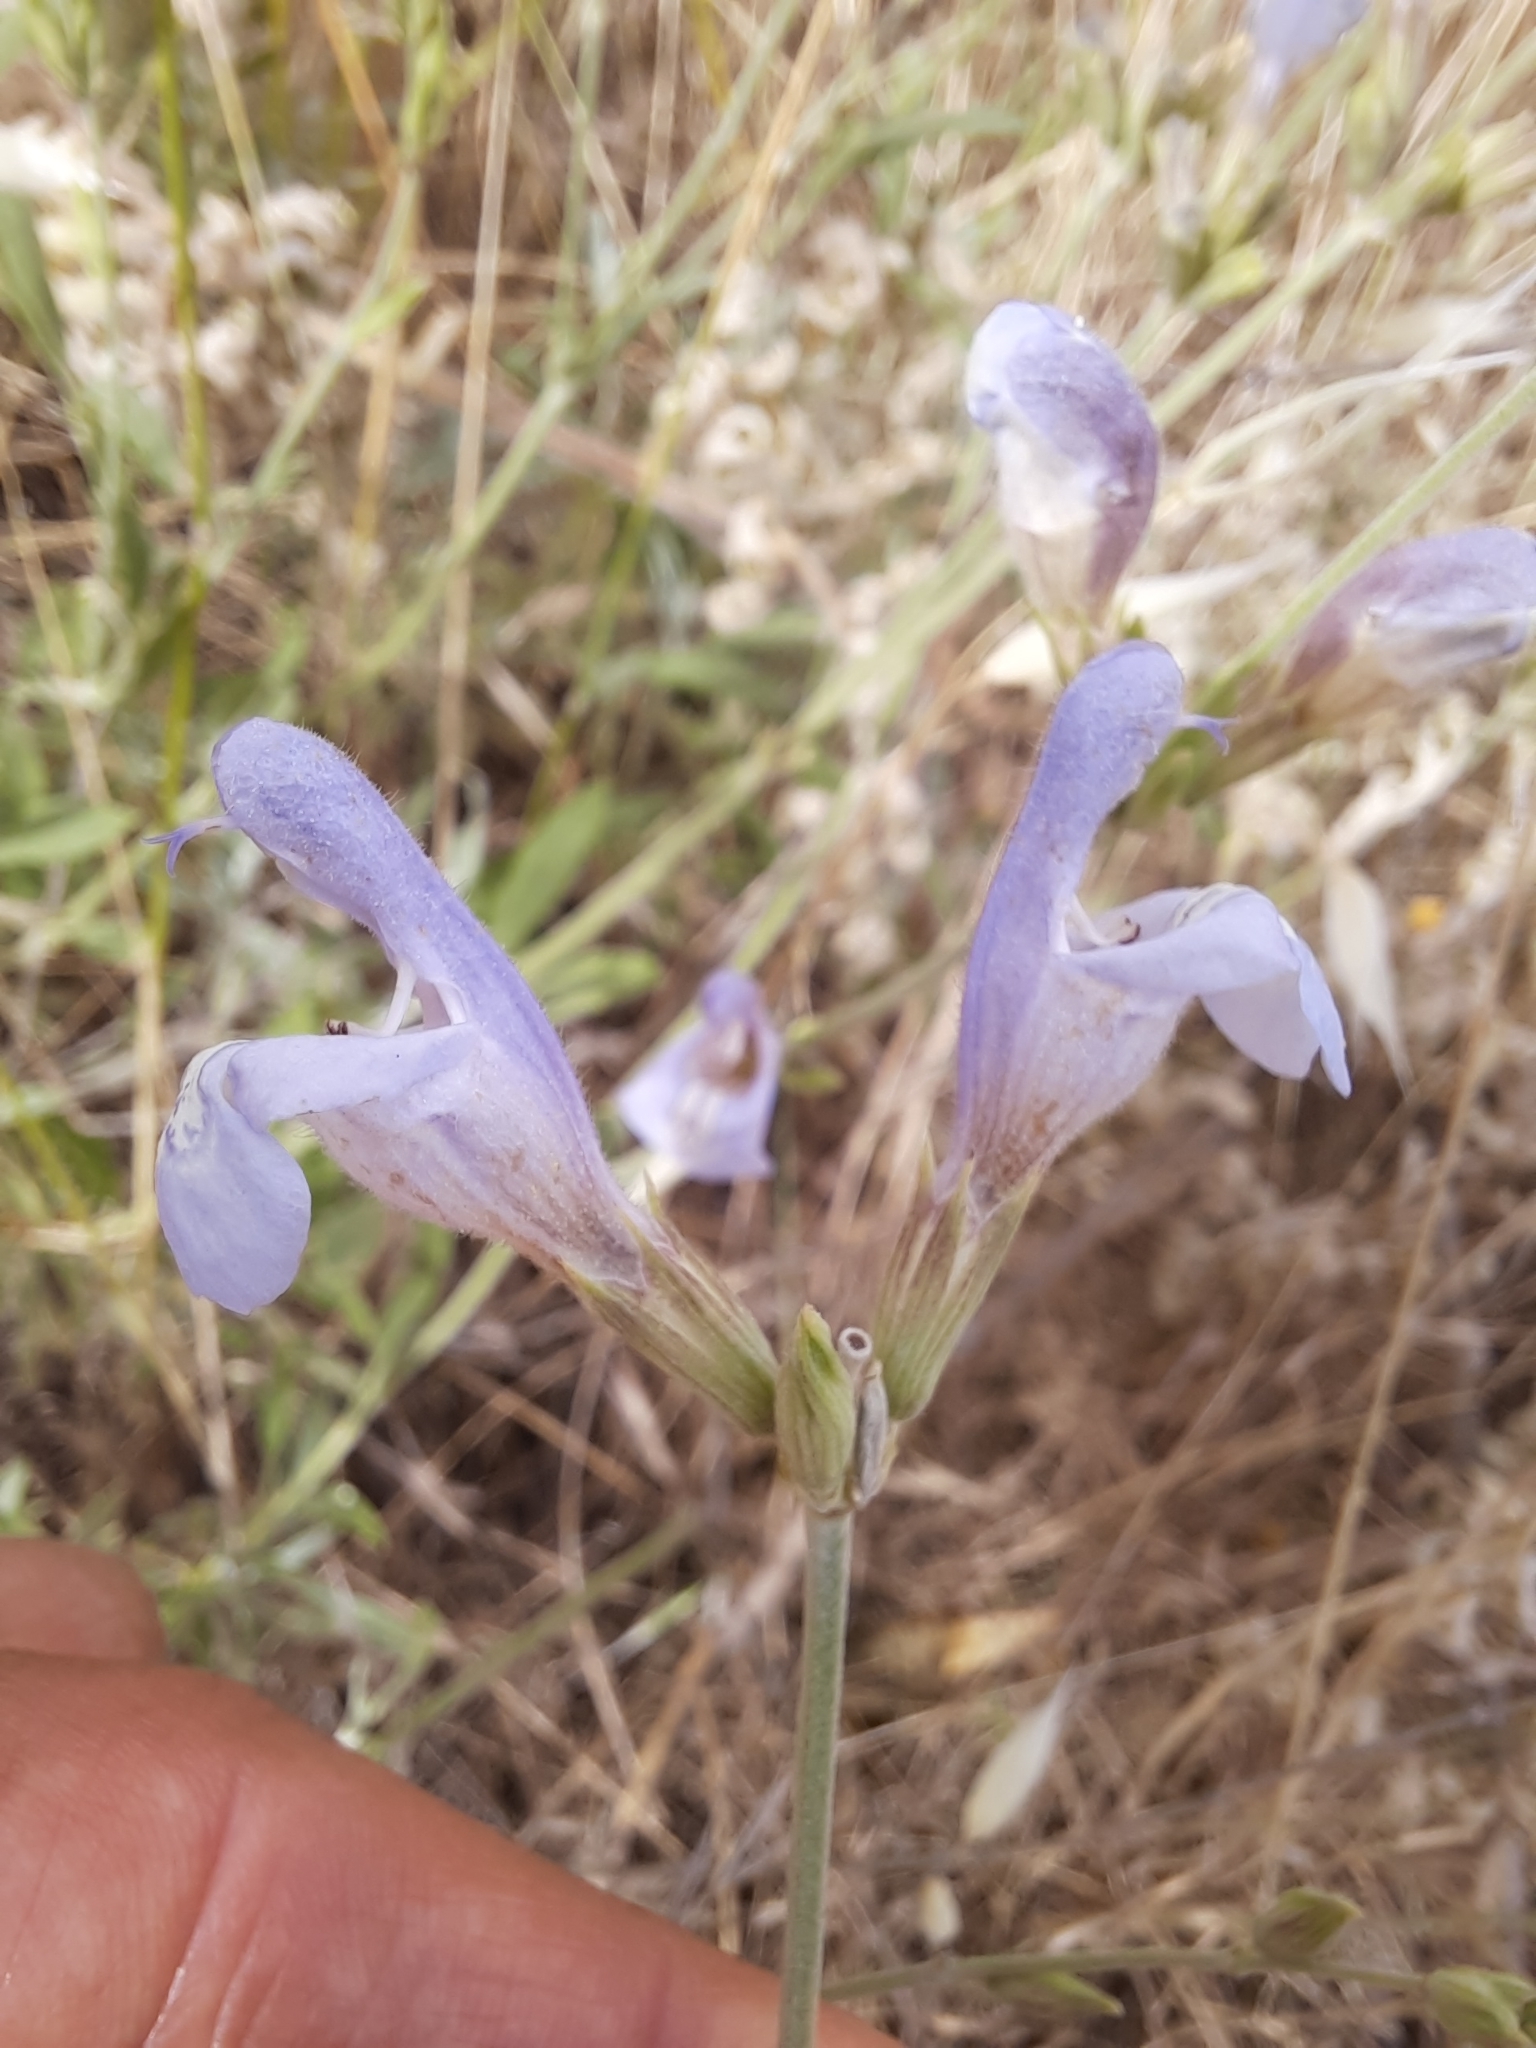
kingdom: Plantae
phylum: Tracheophyta
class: Magnoliopsida
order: Lamiales
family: Lamiaceae
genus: Salvia
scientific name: Salvia officinalis
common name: Sage
